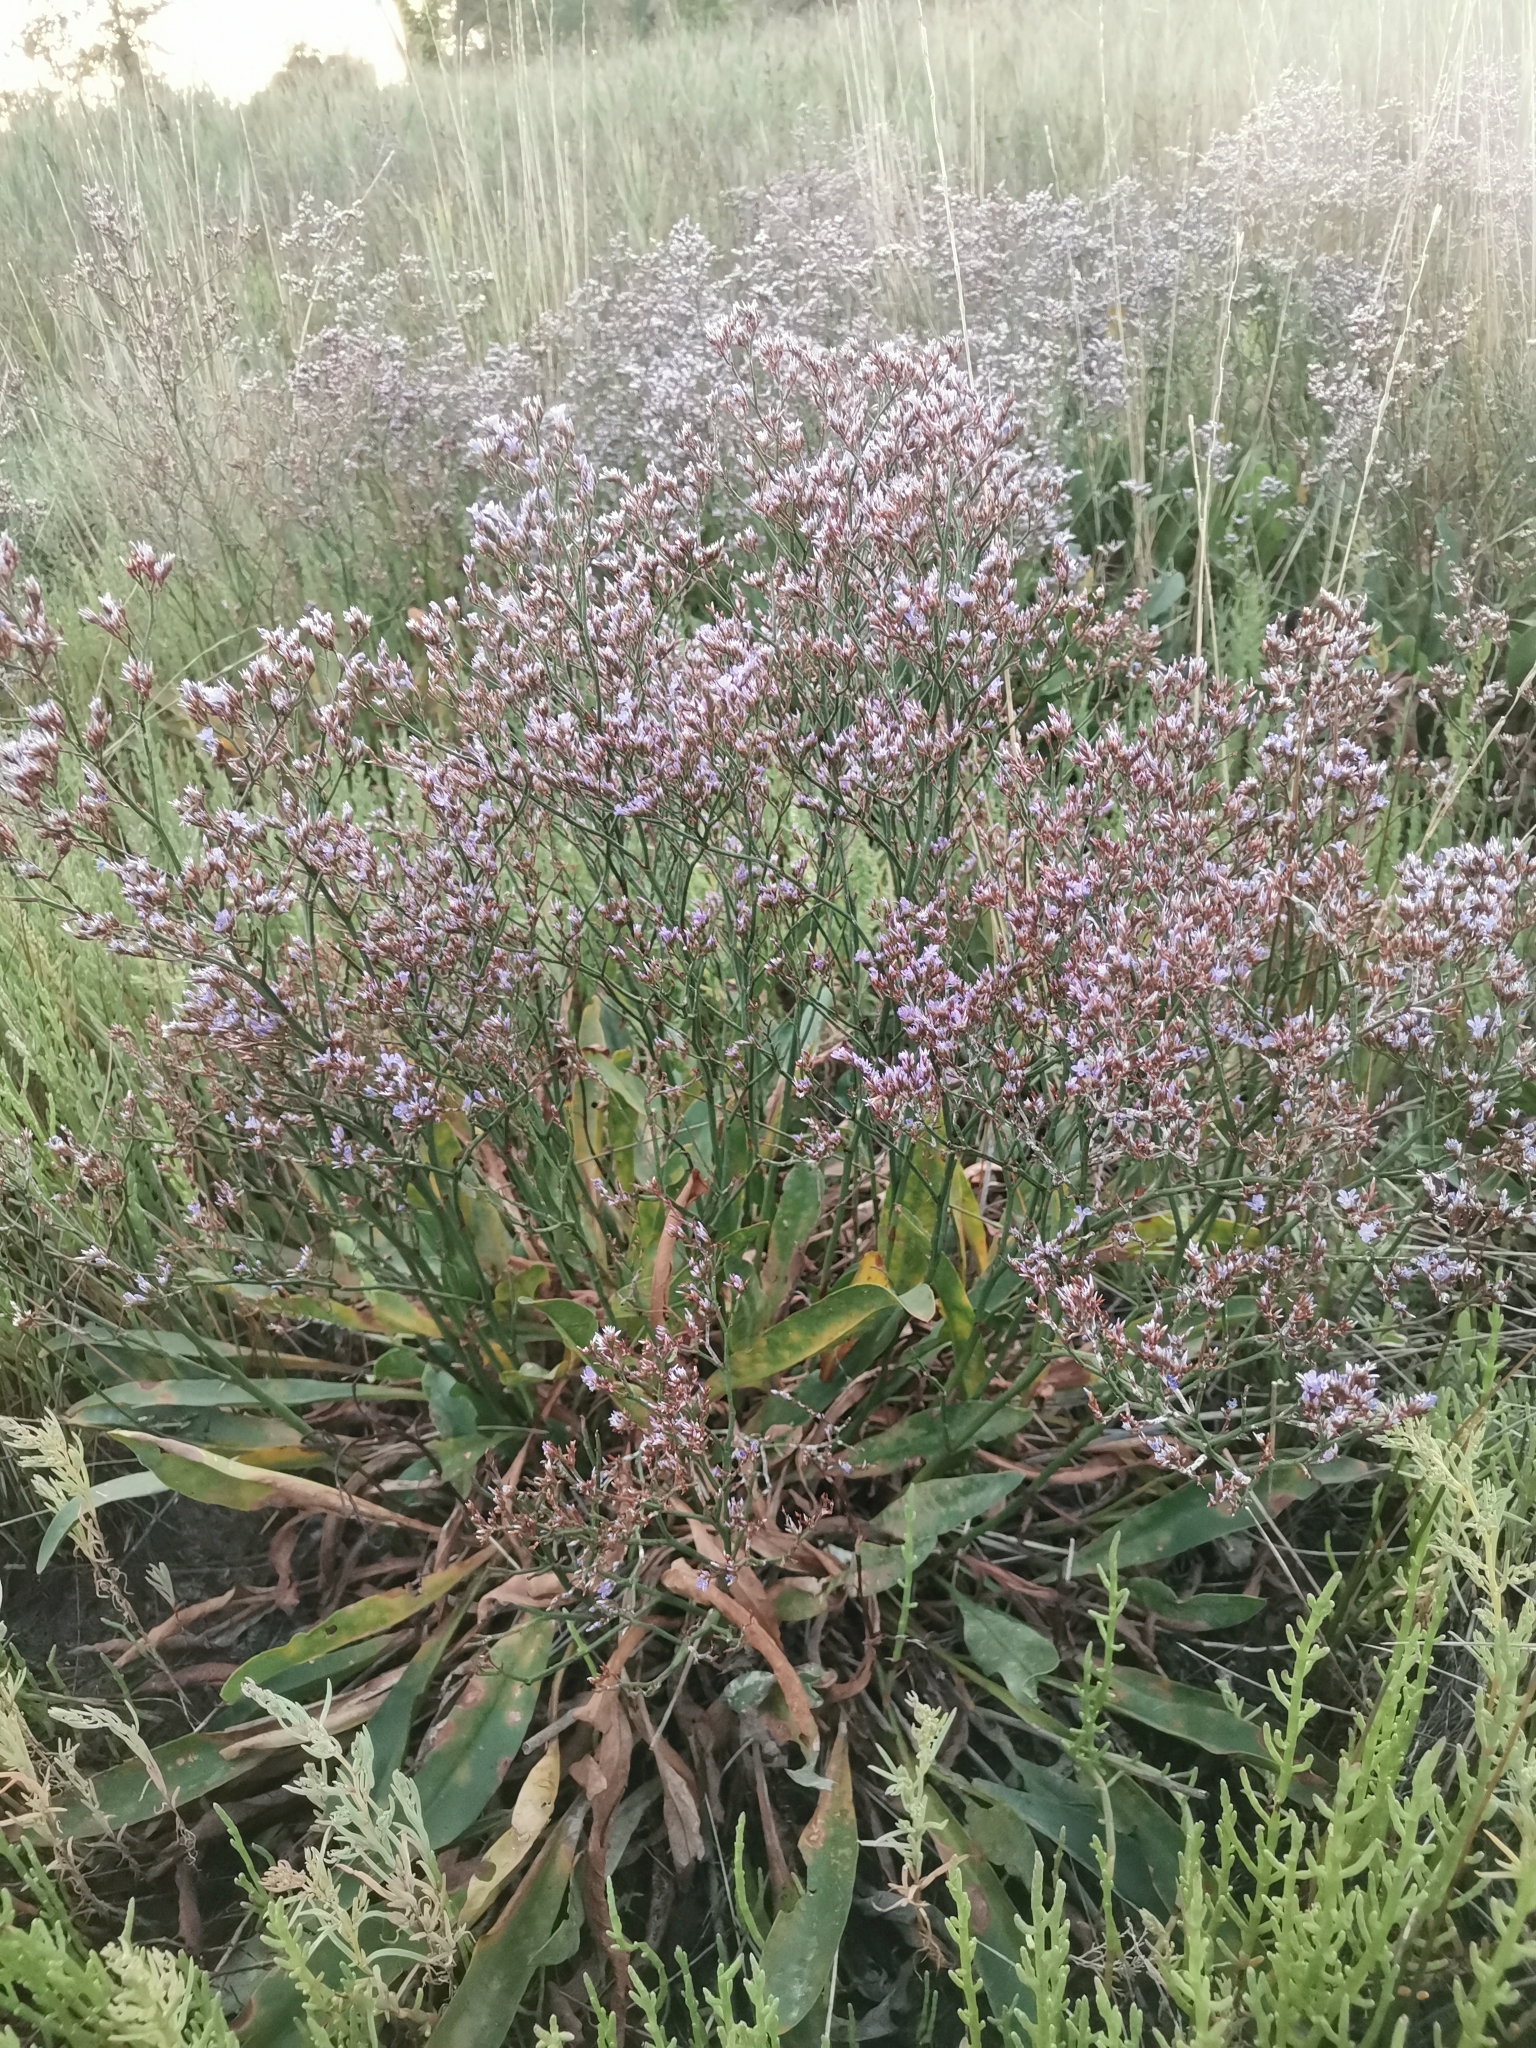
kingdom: Plantae
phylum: Tracheophyta
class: Magnoliopsida
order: Caryophyllales
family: Plumbaginaceae
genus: Limonium
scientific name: Limonium narbonense
